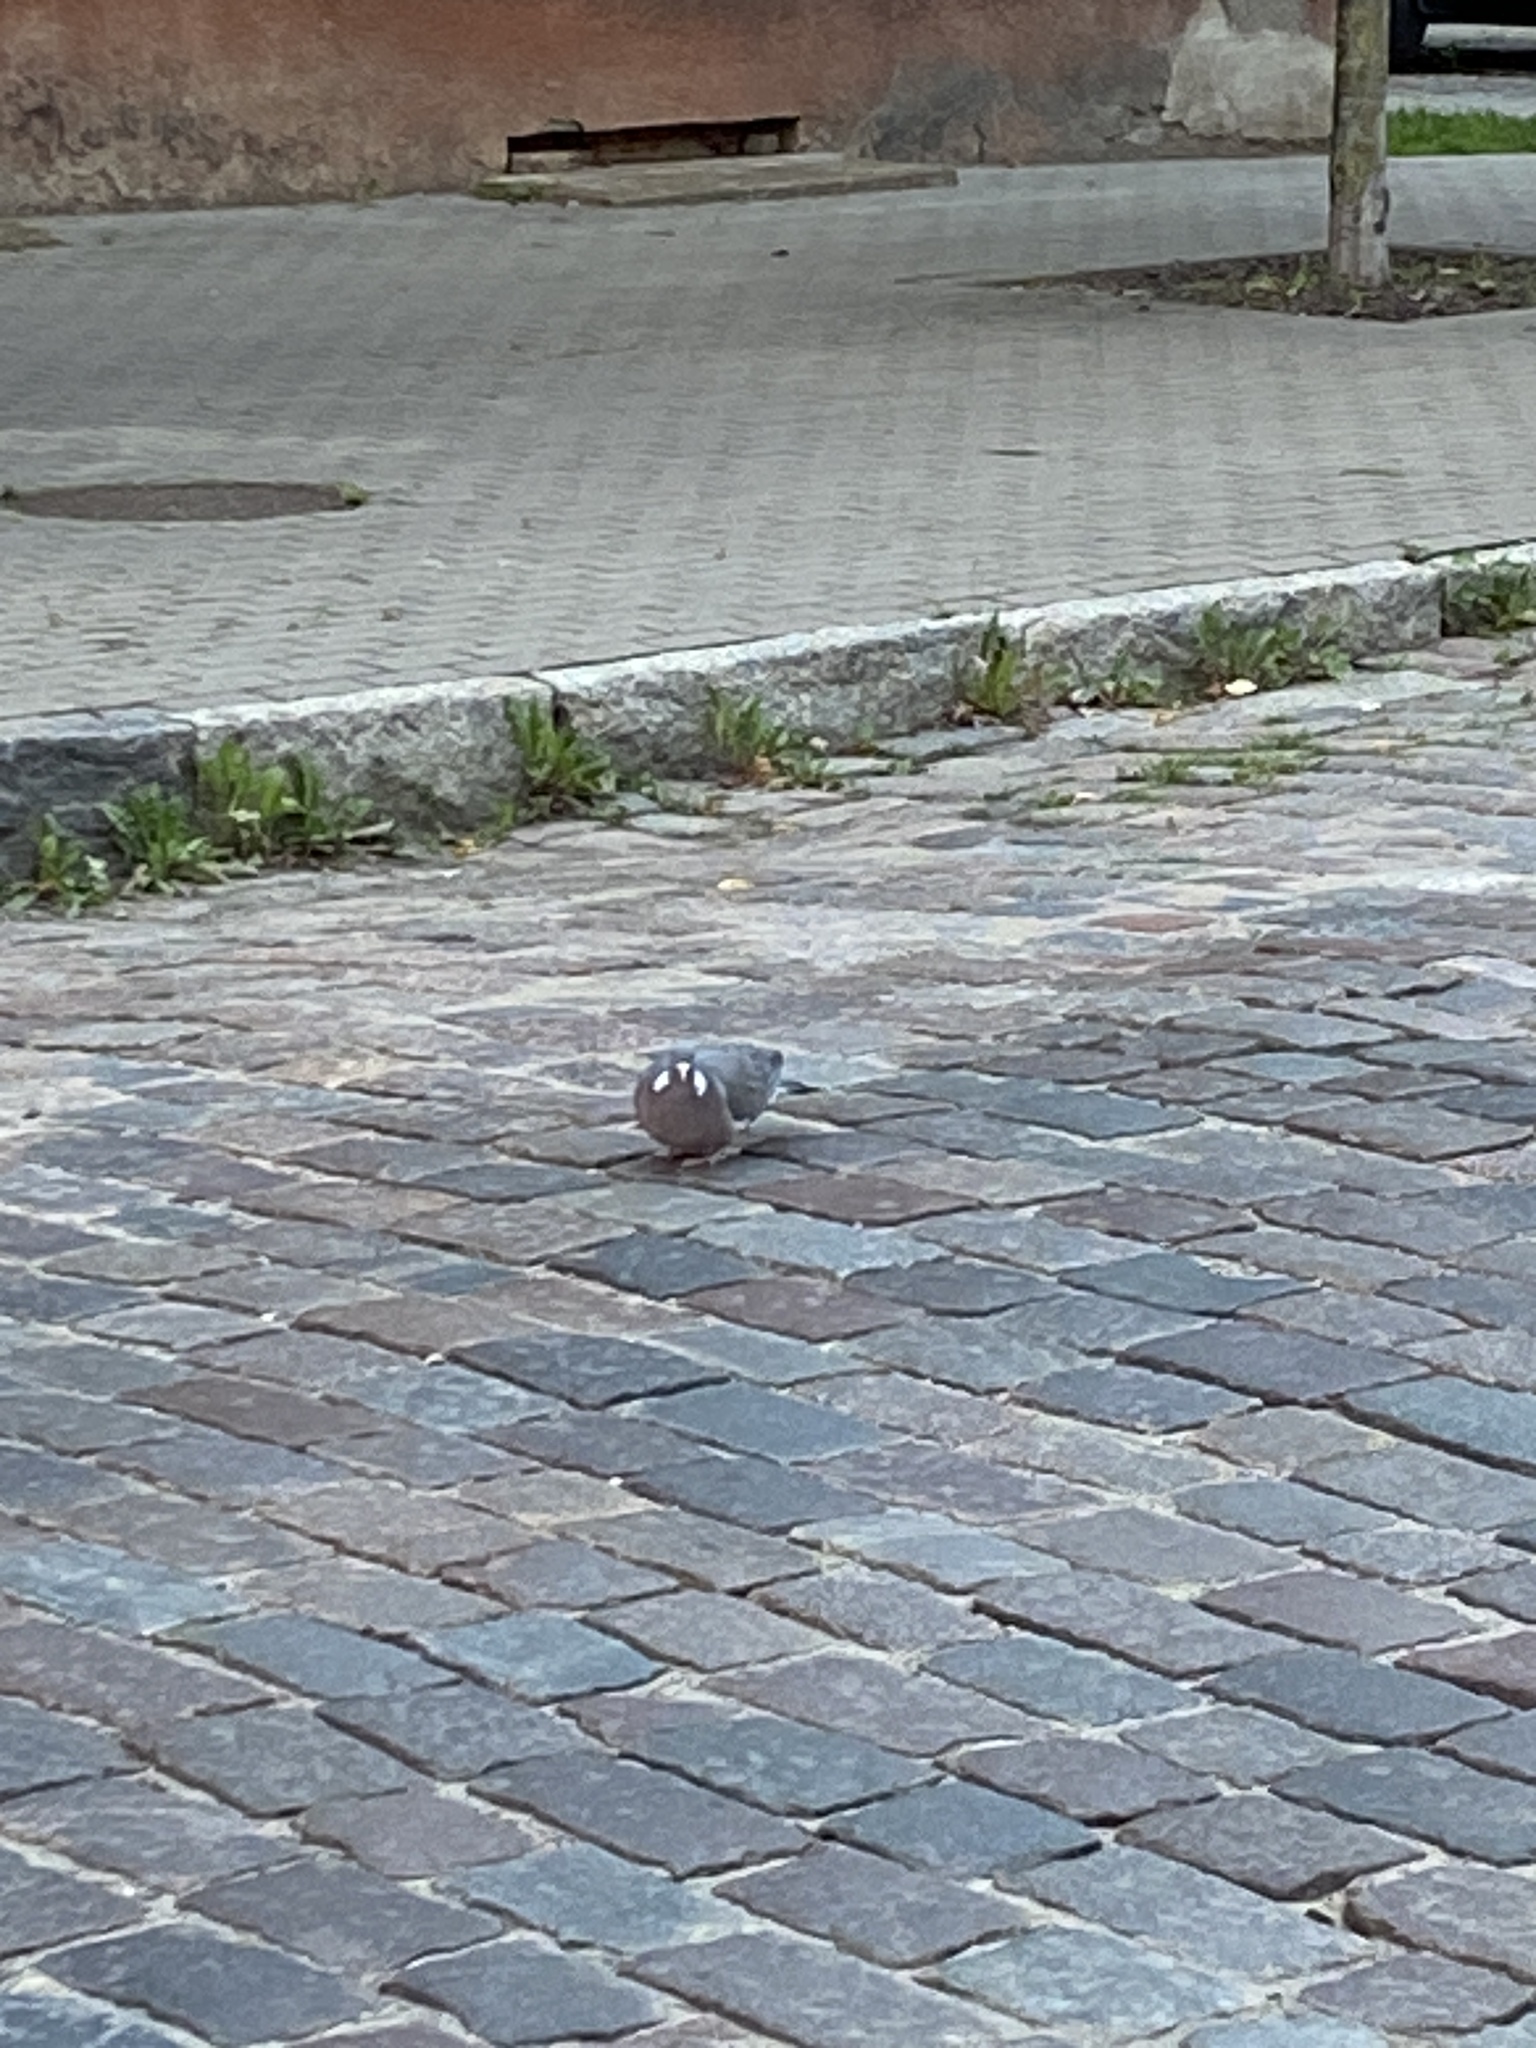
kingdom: Animalia
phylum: Chordata
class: Aves
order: Columbiformes
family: Columbidae
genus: Columba
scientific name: Columba palumbus
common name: Common wood pigeon
